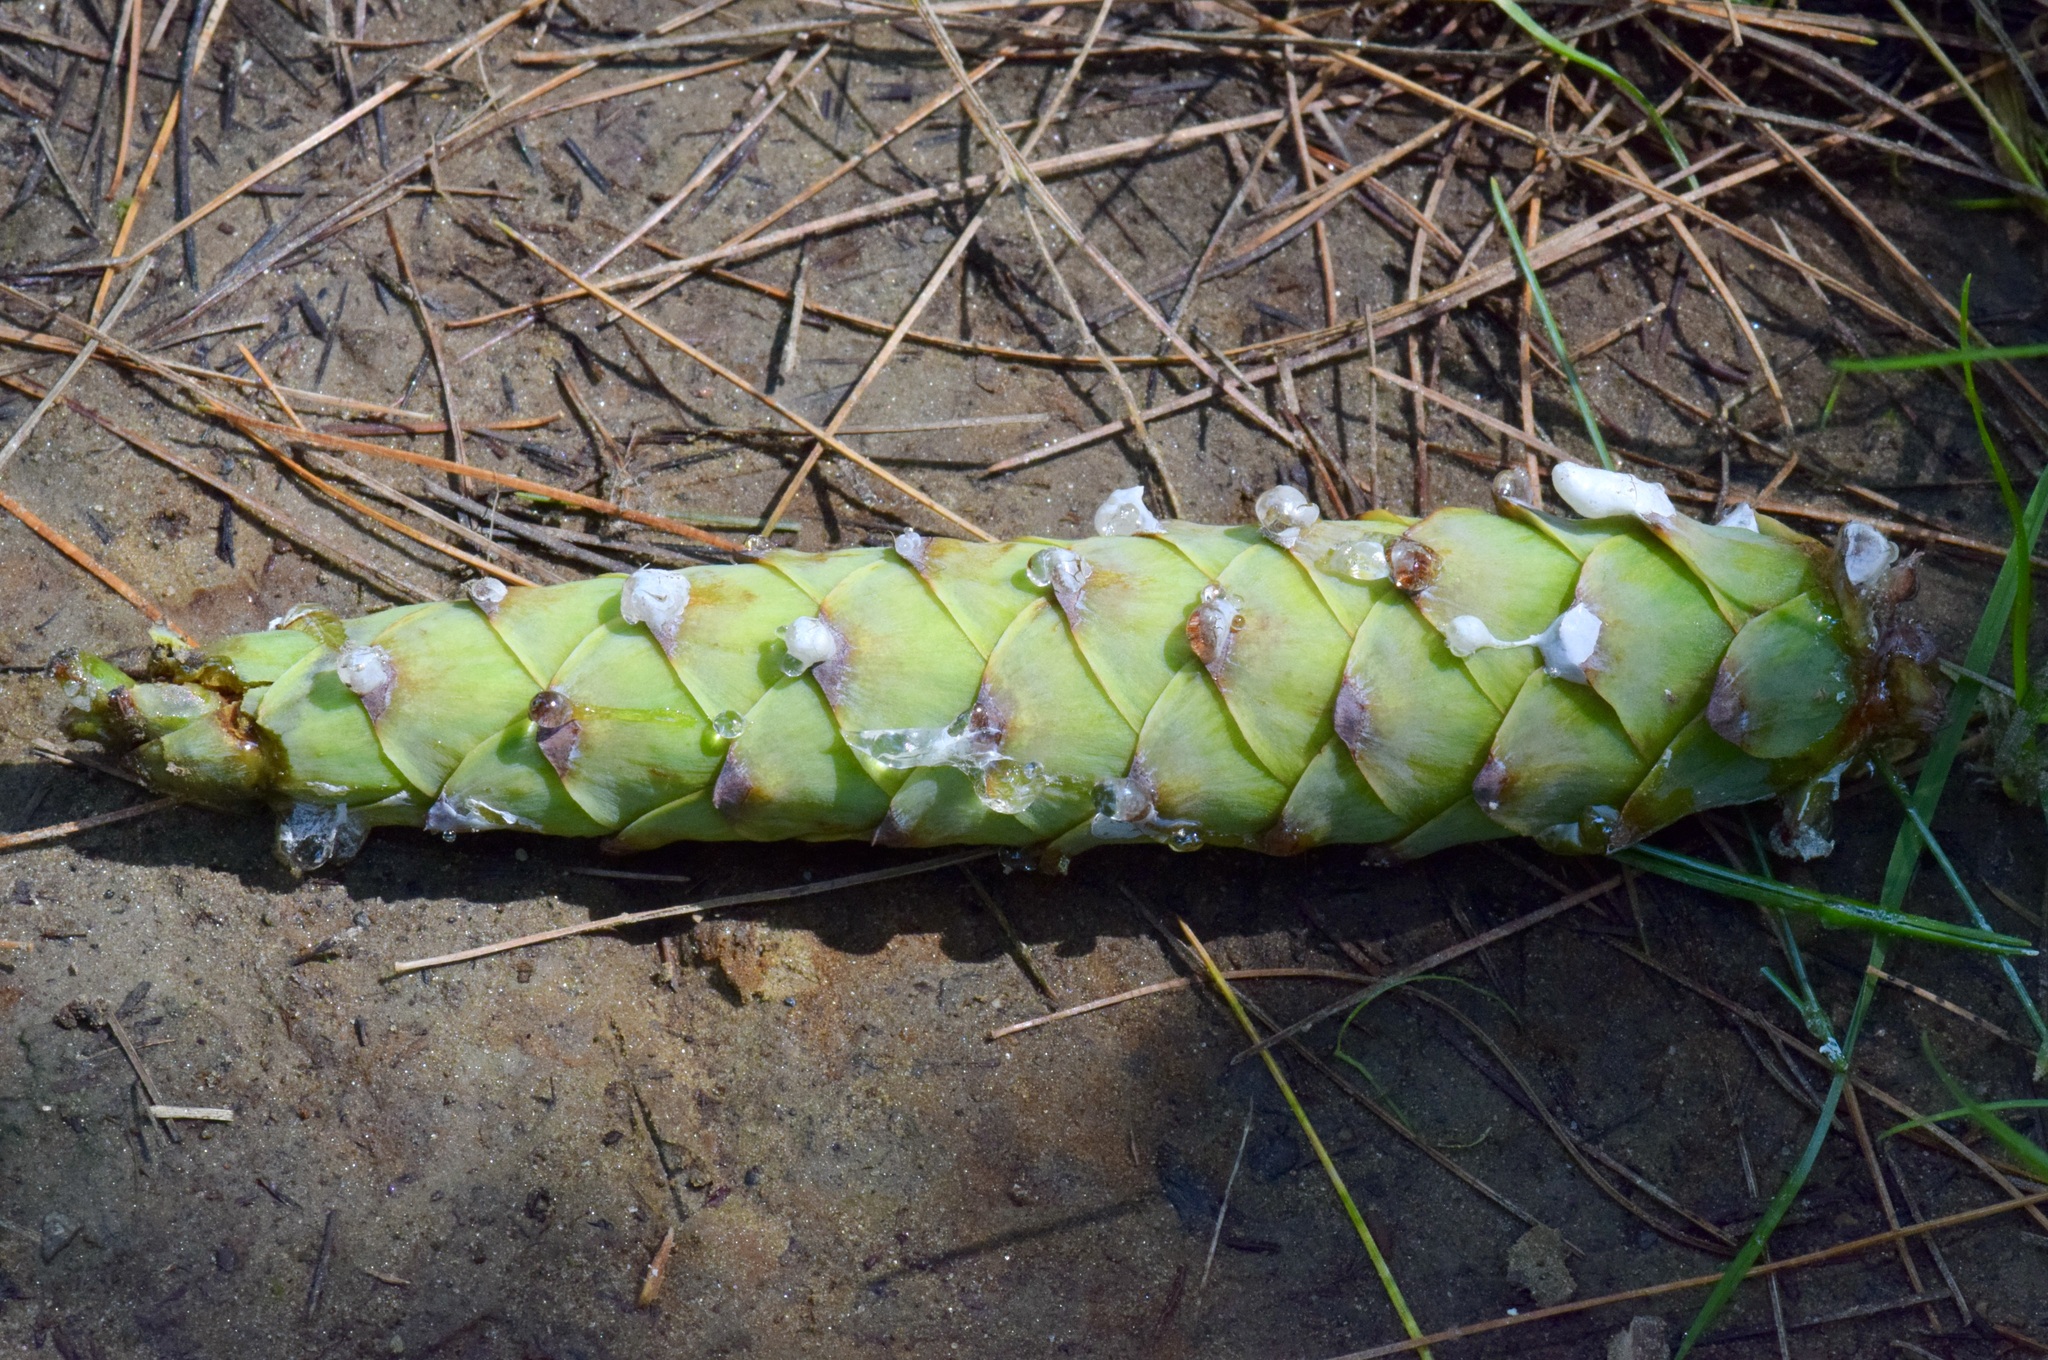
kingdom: Plantae
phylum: Tracheophyta
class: Pinopsida
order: Pinales
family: Pinaceae
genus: Pinus
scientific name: Pinus strobus
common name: Weymouth pine
